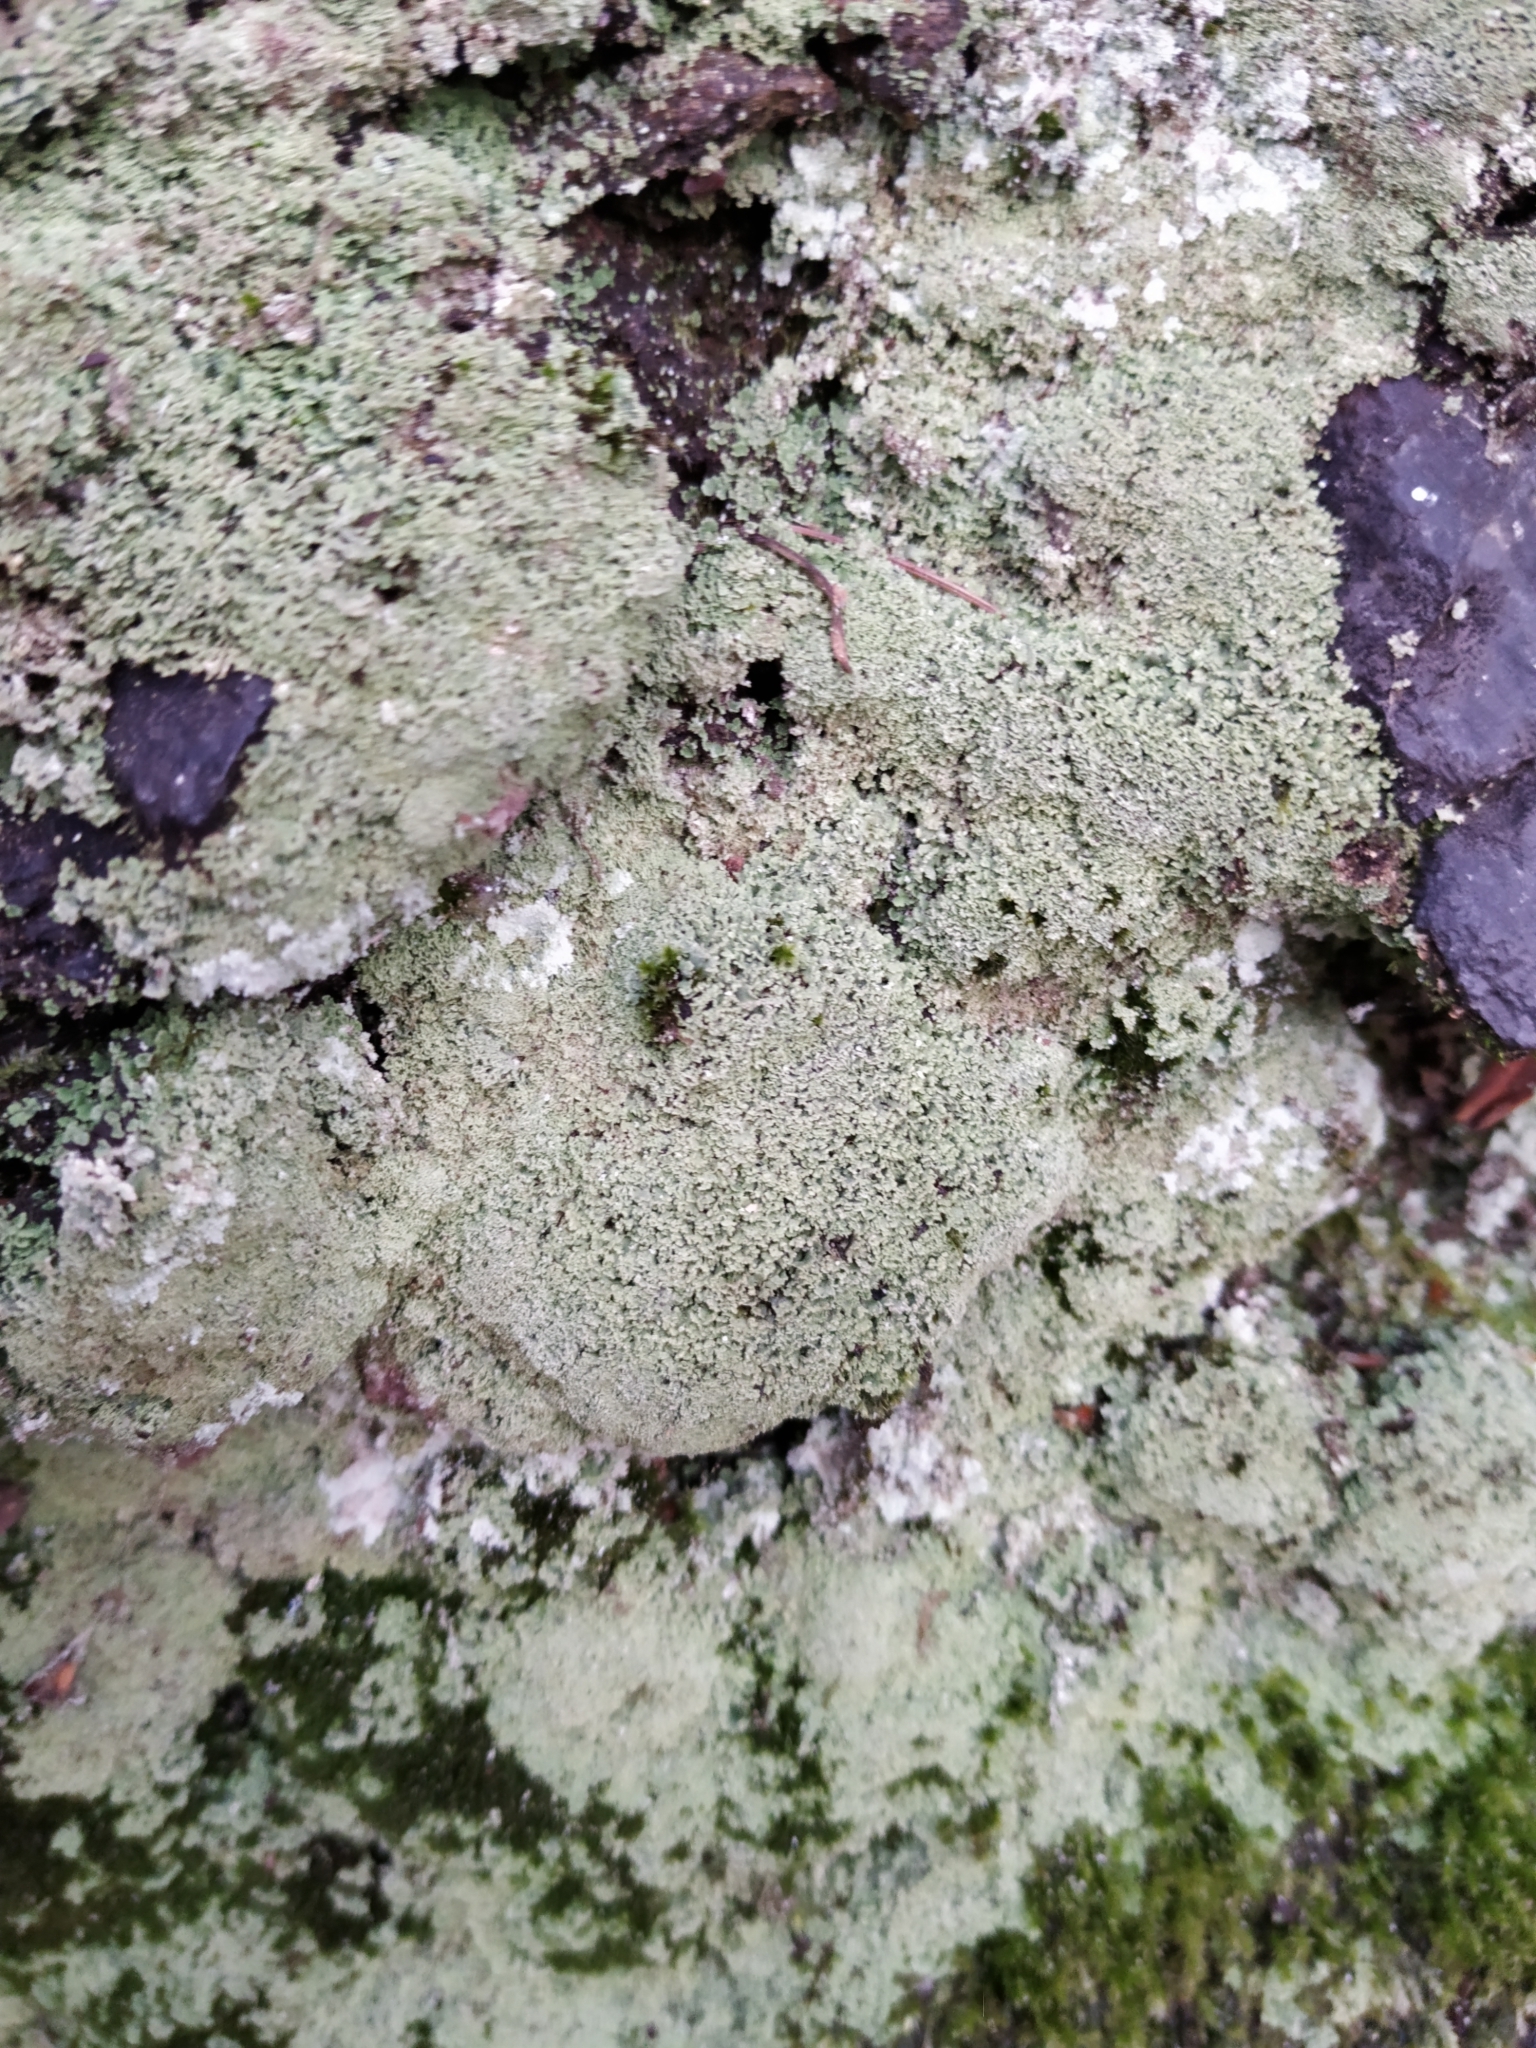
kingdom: Fungi
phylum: Ascomycota
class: Lecanoromycetes
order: Lecanorales
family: Cladoniaceae
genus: Cladonia
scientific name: Cladonia
